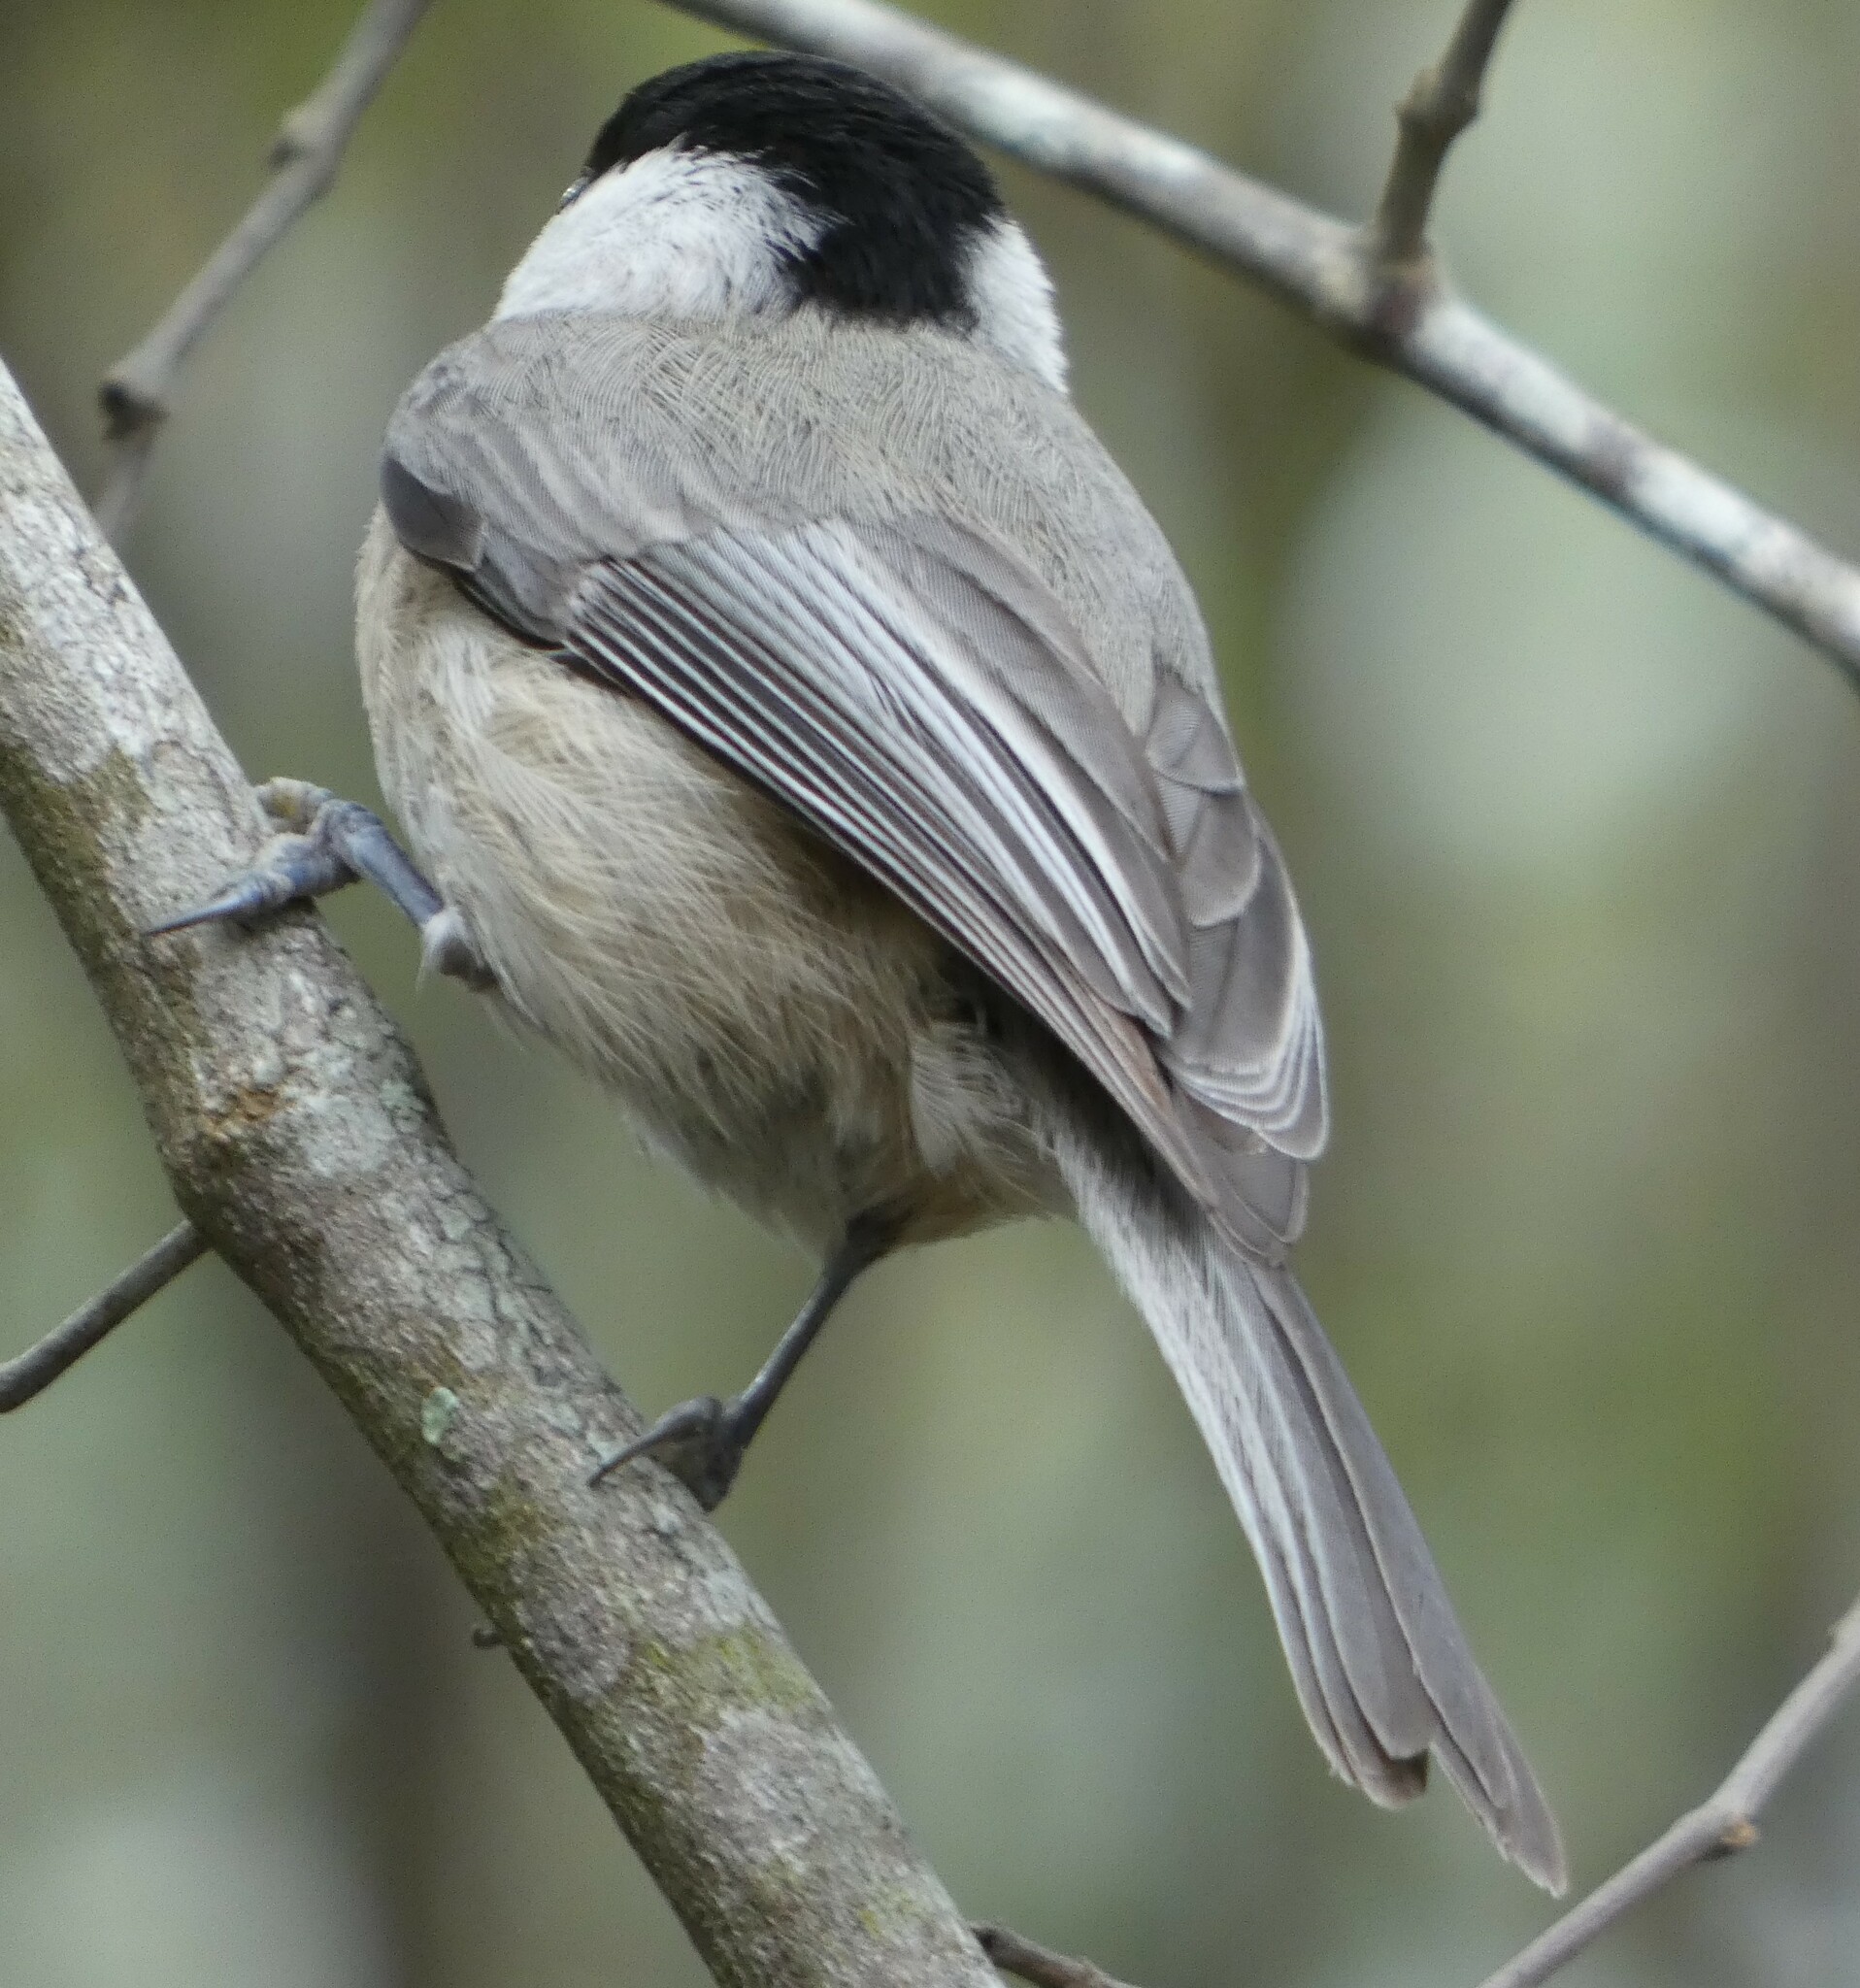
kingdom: Animalia
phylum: Chordata
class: Aves
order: Passeriformes
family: Paridae
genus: Poecile
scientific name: Poecile carolinensis
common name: Carolina chickadee
